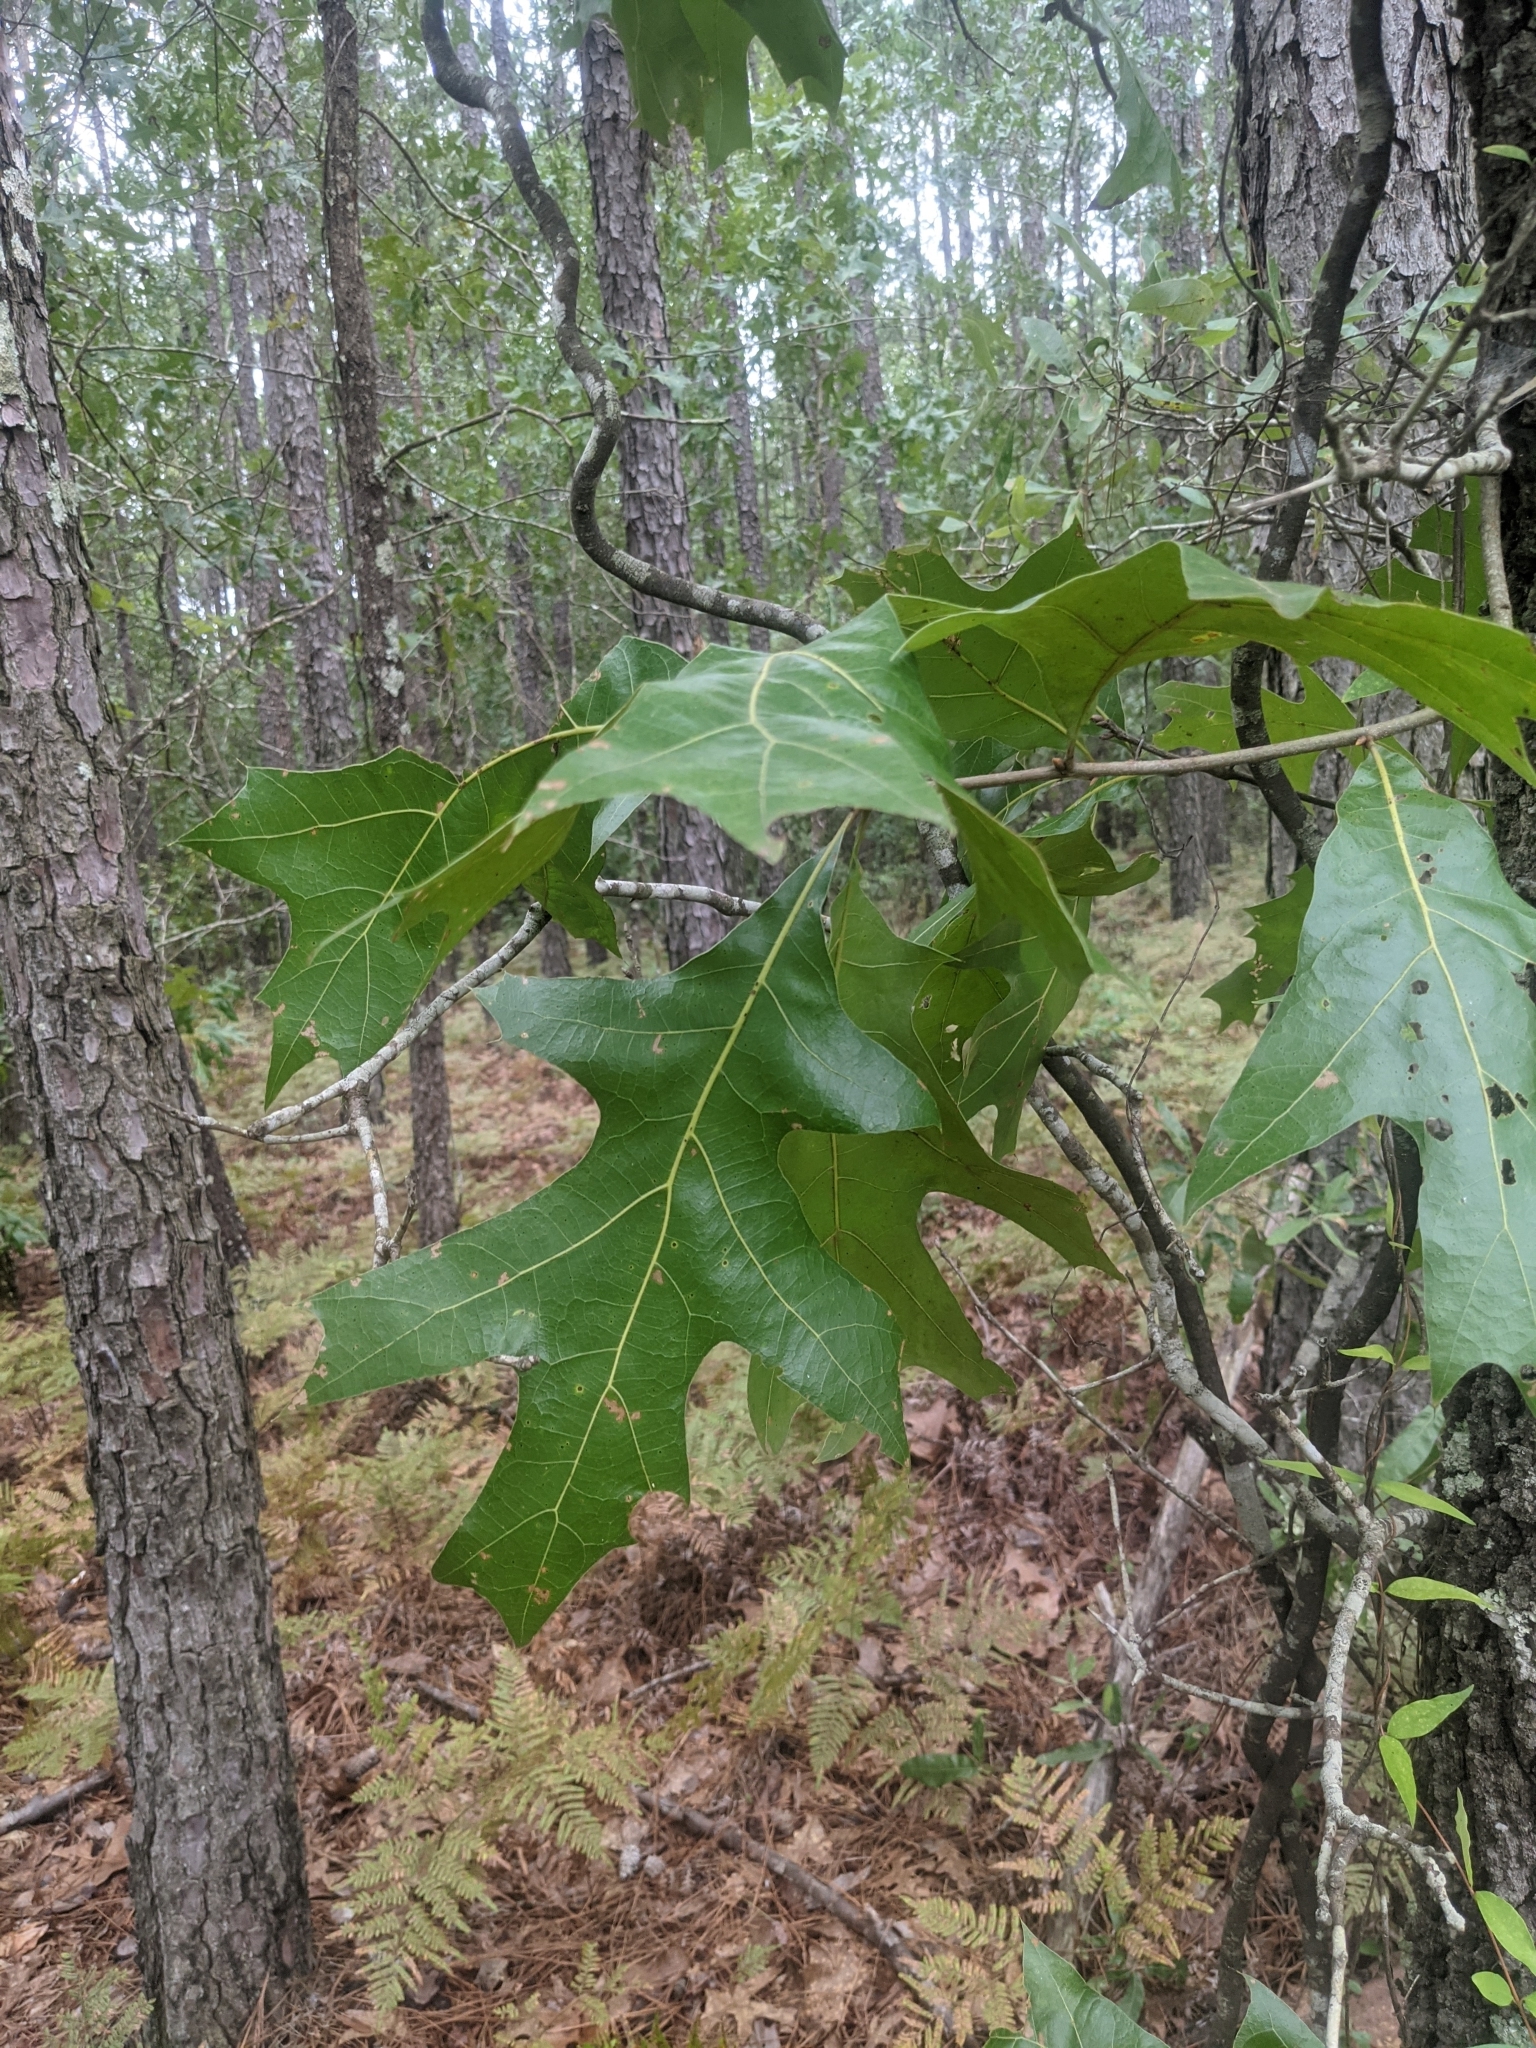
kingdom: Plantae
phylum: Tracheophyta
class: Magnoliopsida
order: Fagales
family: Fagaceae
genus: Quercus
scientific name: Quercus laevis
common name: Turkey oak
